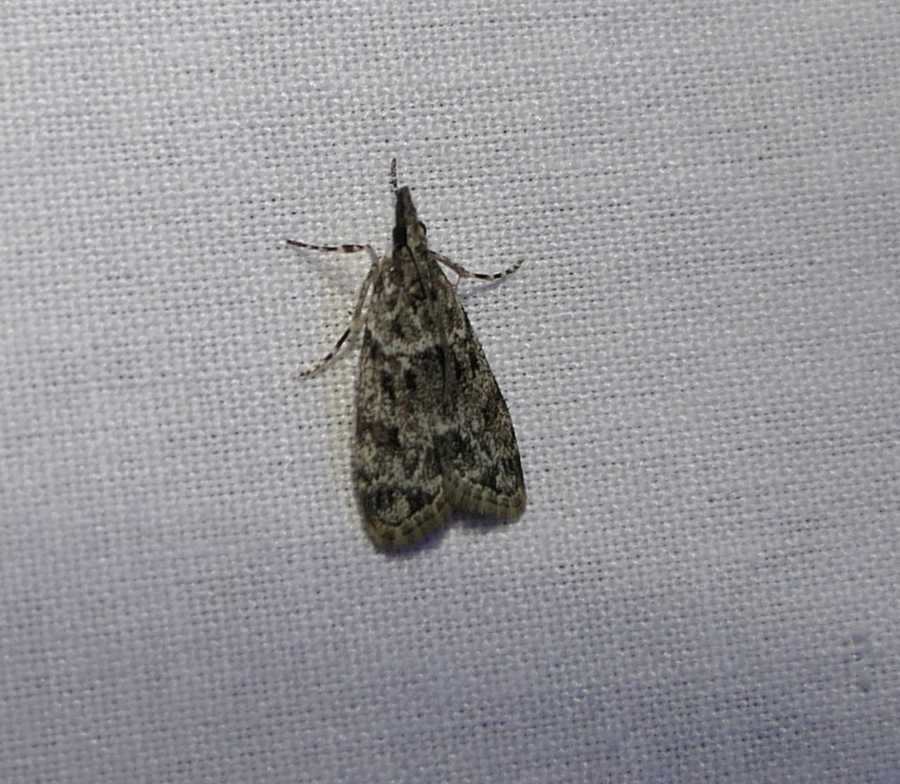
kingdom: Animalia
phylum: Arthropoda
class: Insecta
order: Lepidoptera
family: Crambidae
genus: Scoparia
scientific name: Scoparia biplagialis
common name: Double-striped scoparia moth
